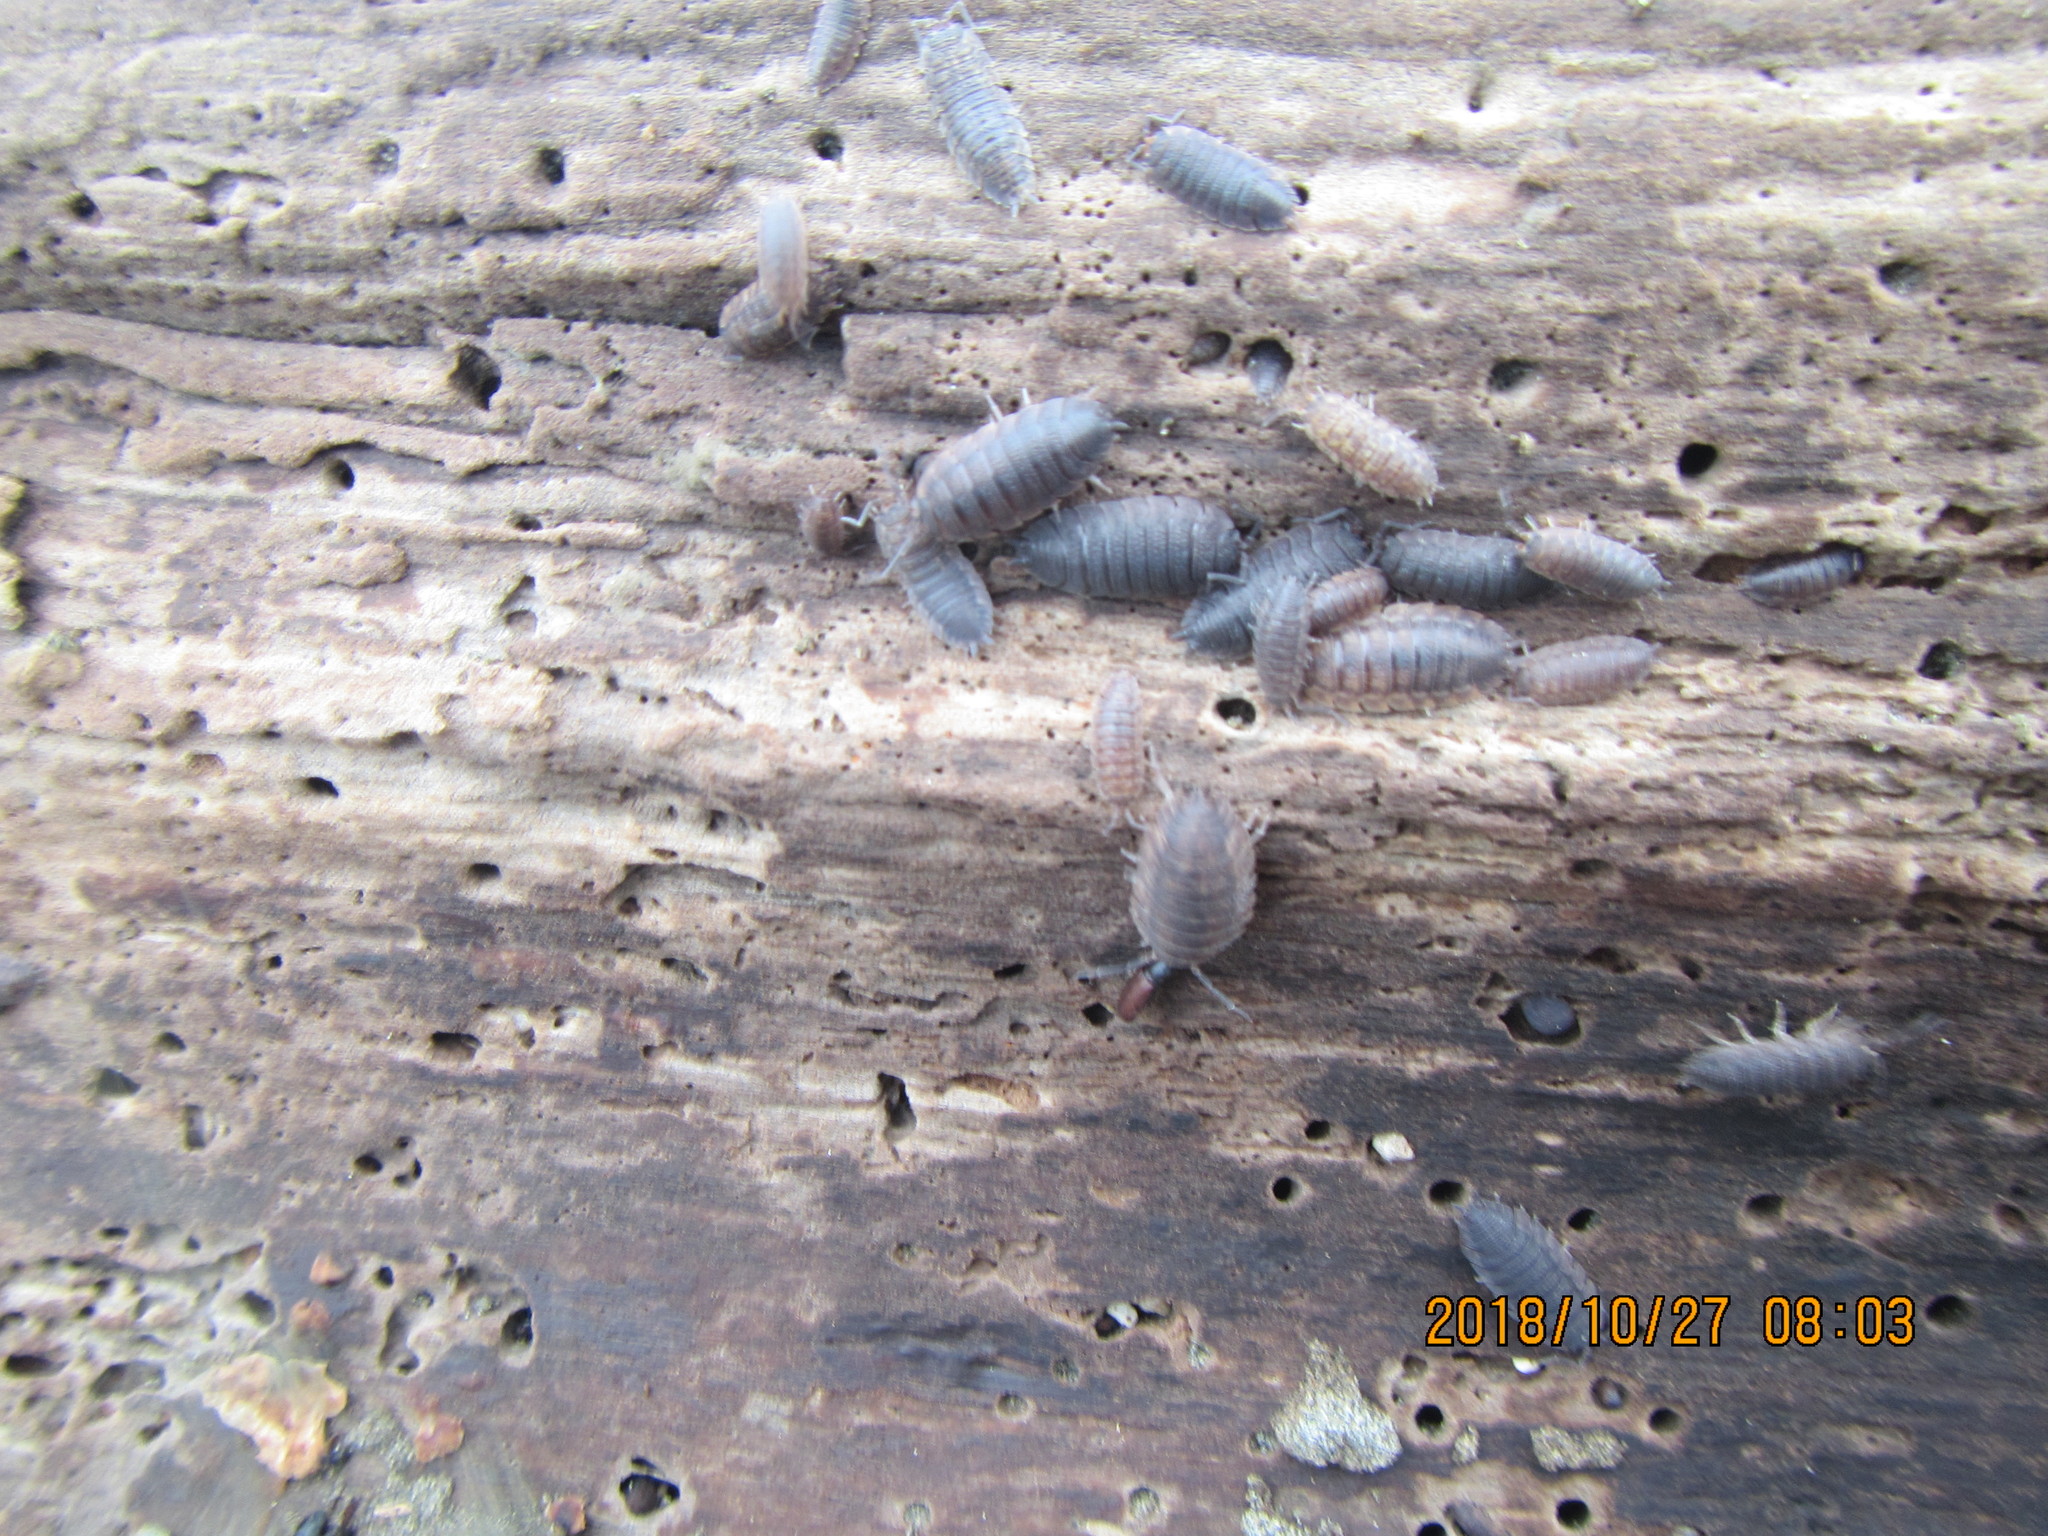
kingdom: Animalia
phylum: Arthropoda
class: Malacostraca
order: Isopoda
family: Porcellionidae
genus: Porcellio
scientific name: Porcellio scaber
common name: Common rough woodlouse
